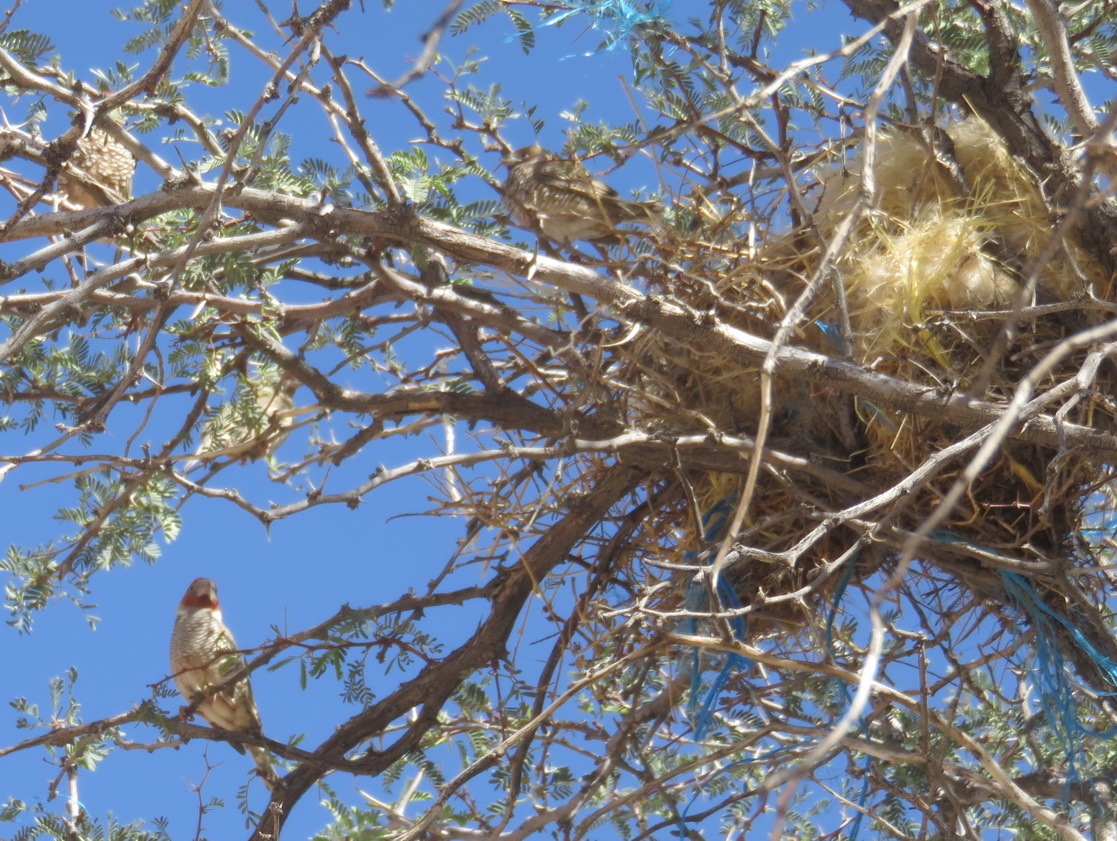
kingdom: Animalia
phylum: Chordata
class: Aves
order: Passeriformes
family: Estrildidae
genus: Amadina
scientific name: Amadina erythrocephala
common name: Red-headed finch
